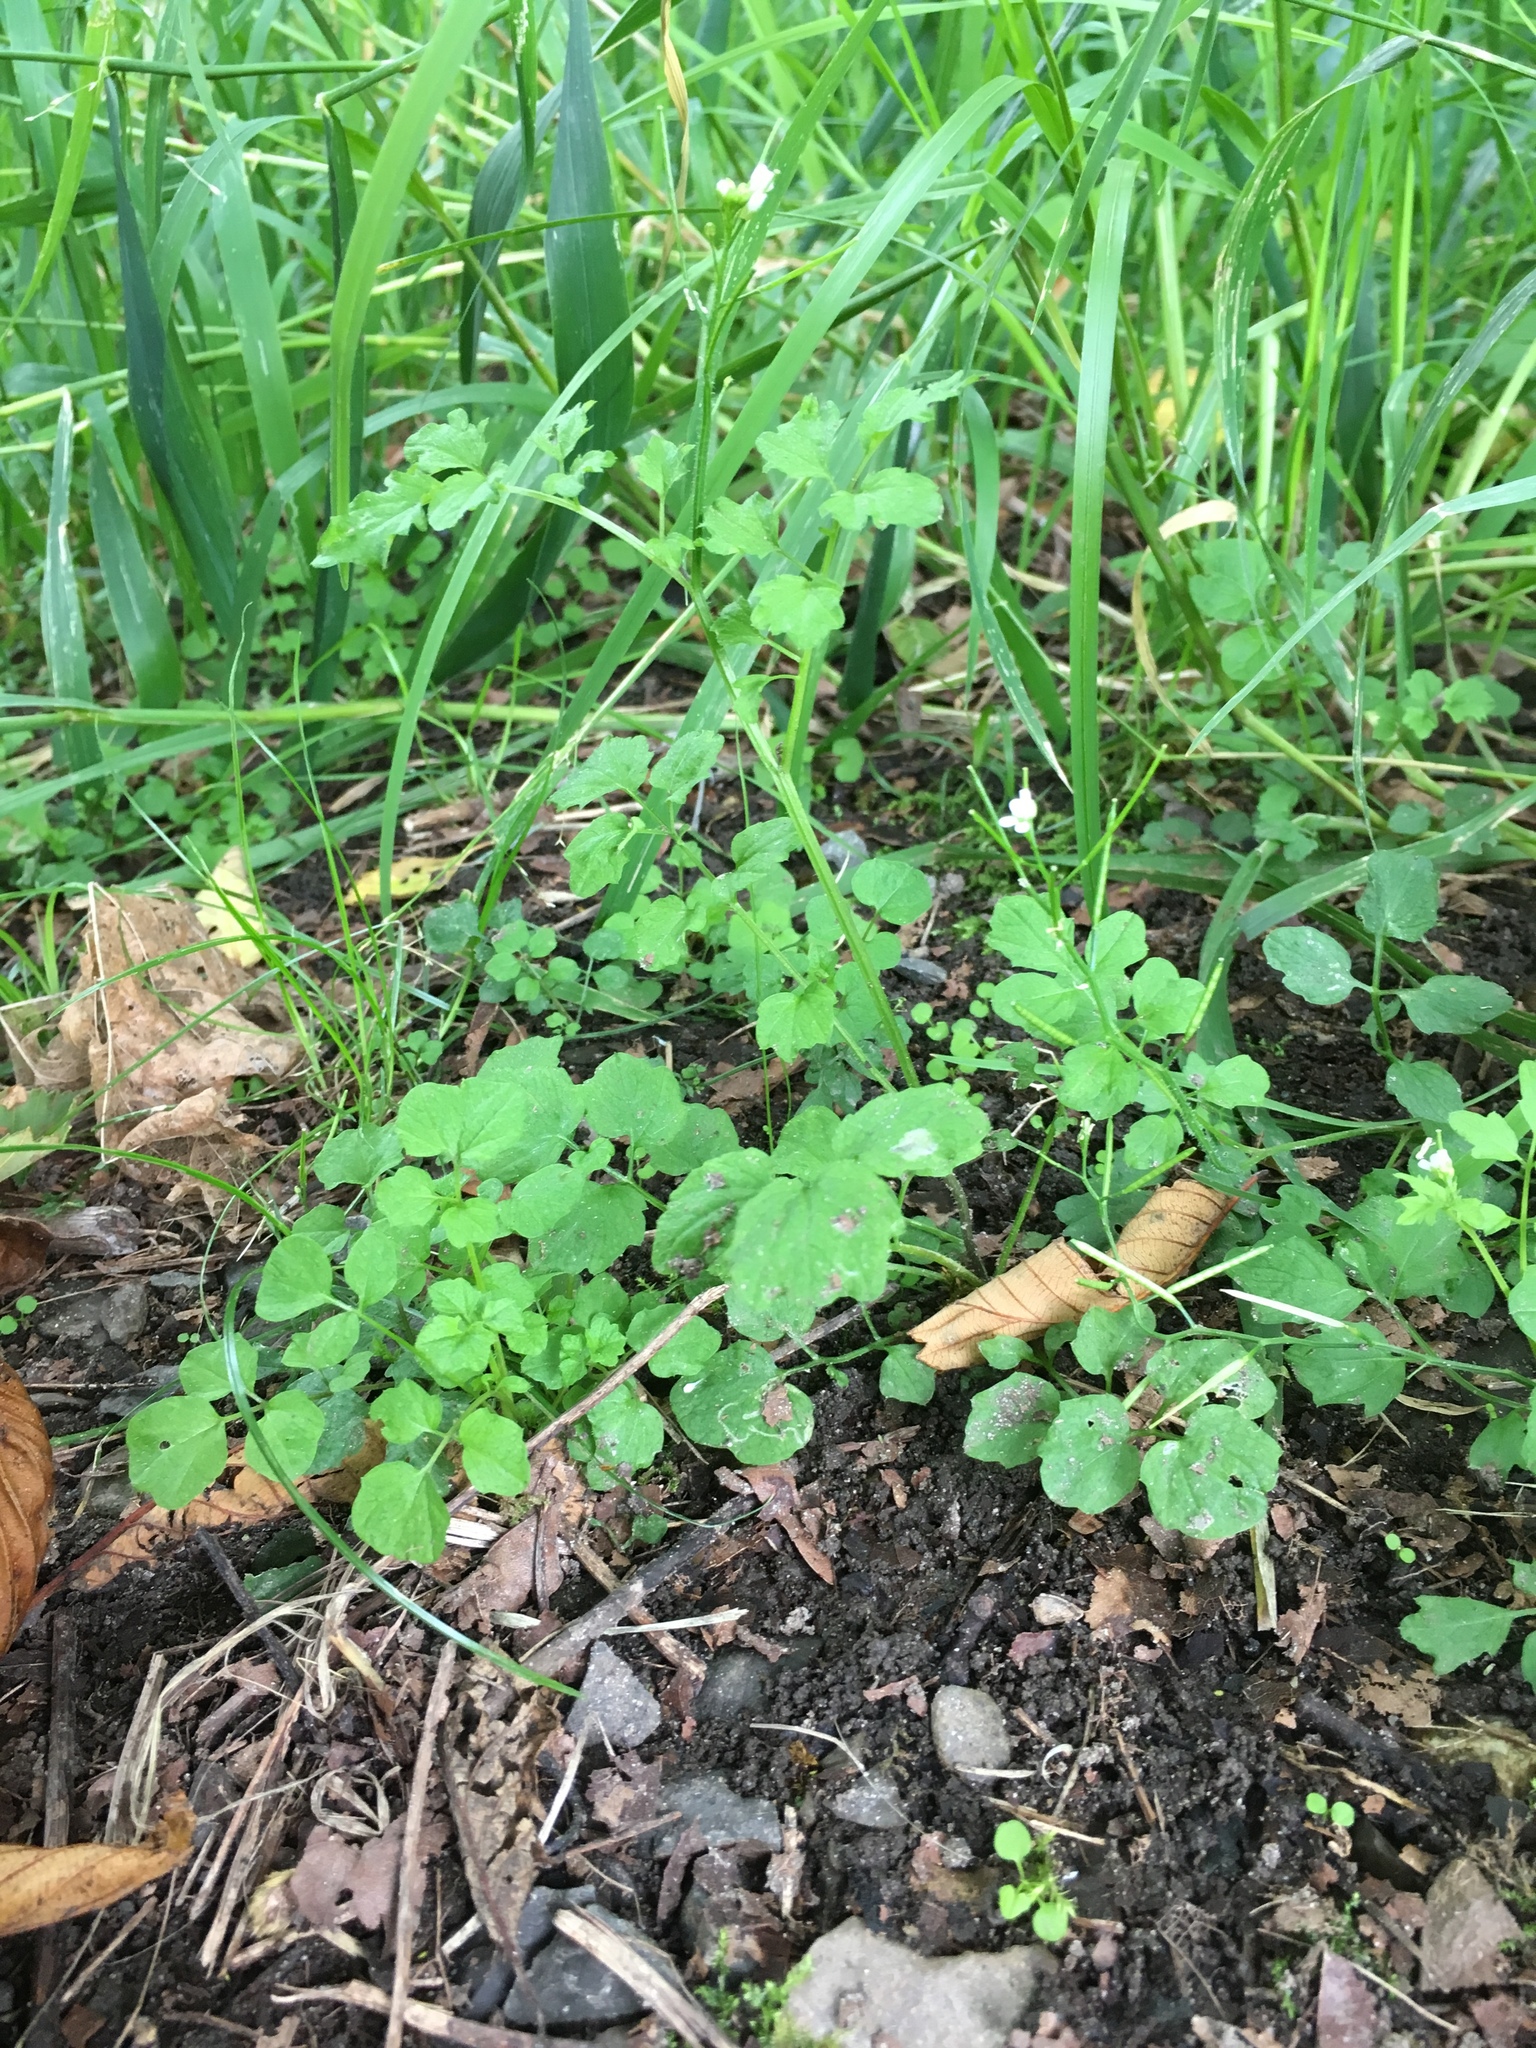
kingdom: Plantae
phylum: Tracheophyta
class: Magnoliopsida
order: Brassicales
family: Brassicaceae
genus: Cardamine
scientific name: Cardamine flexuosa
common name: Woodland bittercress
